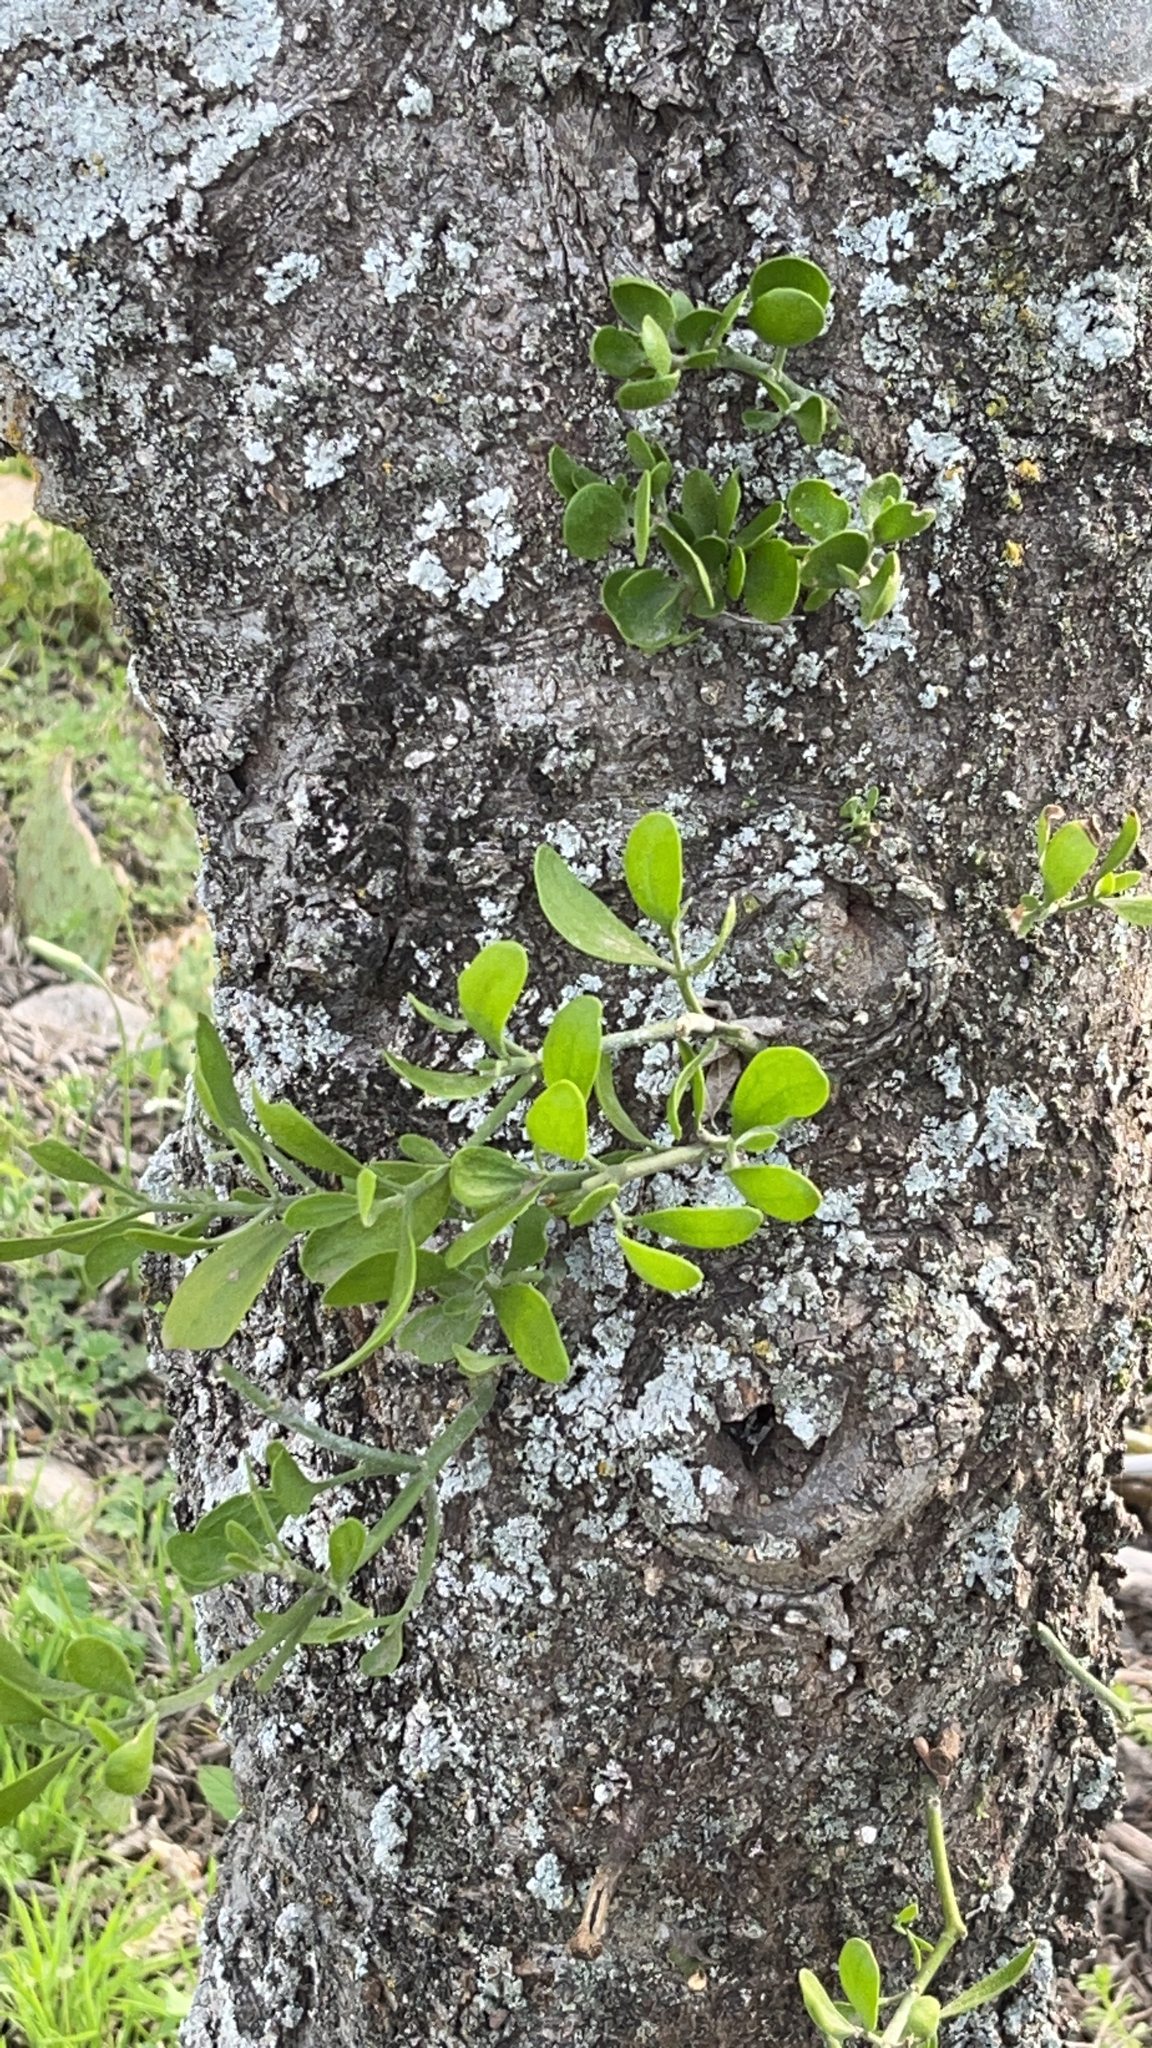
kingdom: Plantae
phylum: Tracheophyta
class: Magnoliopsida
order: Santalales
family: Viscaceae
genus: Phoradendron
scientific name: Phoradendron leucarpum
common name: Pacific mistletoe
